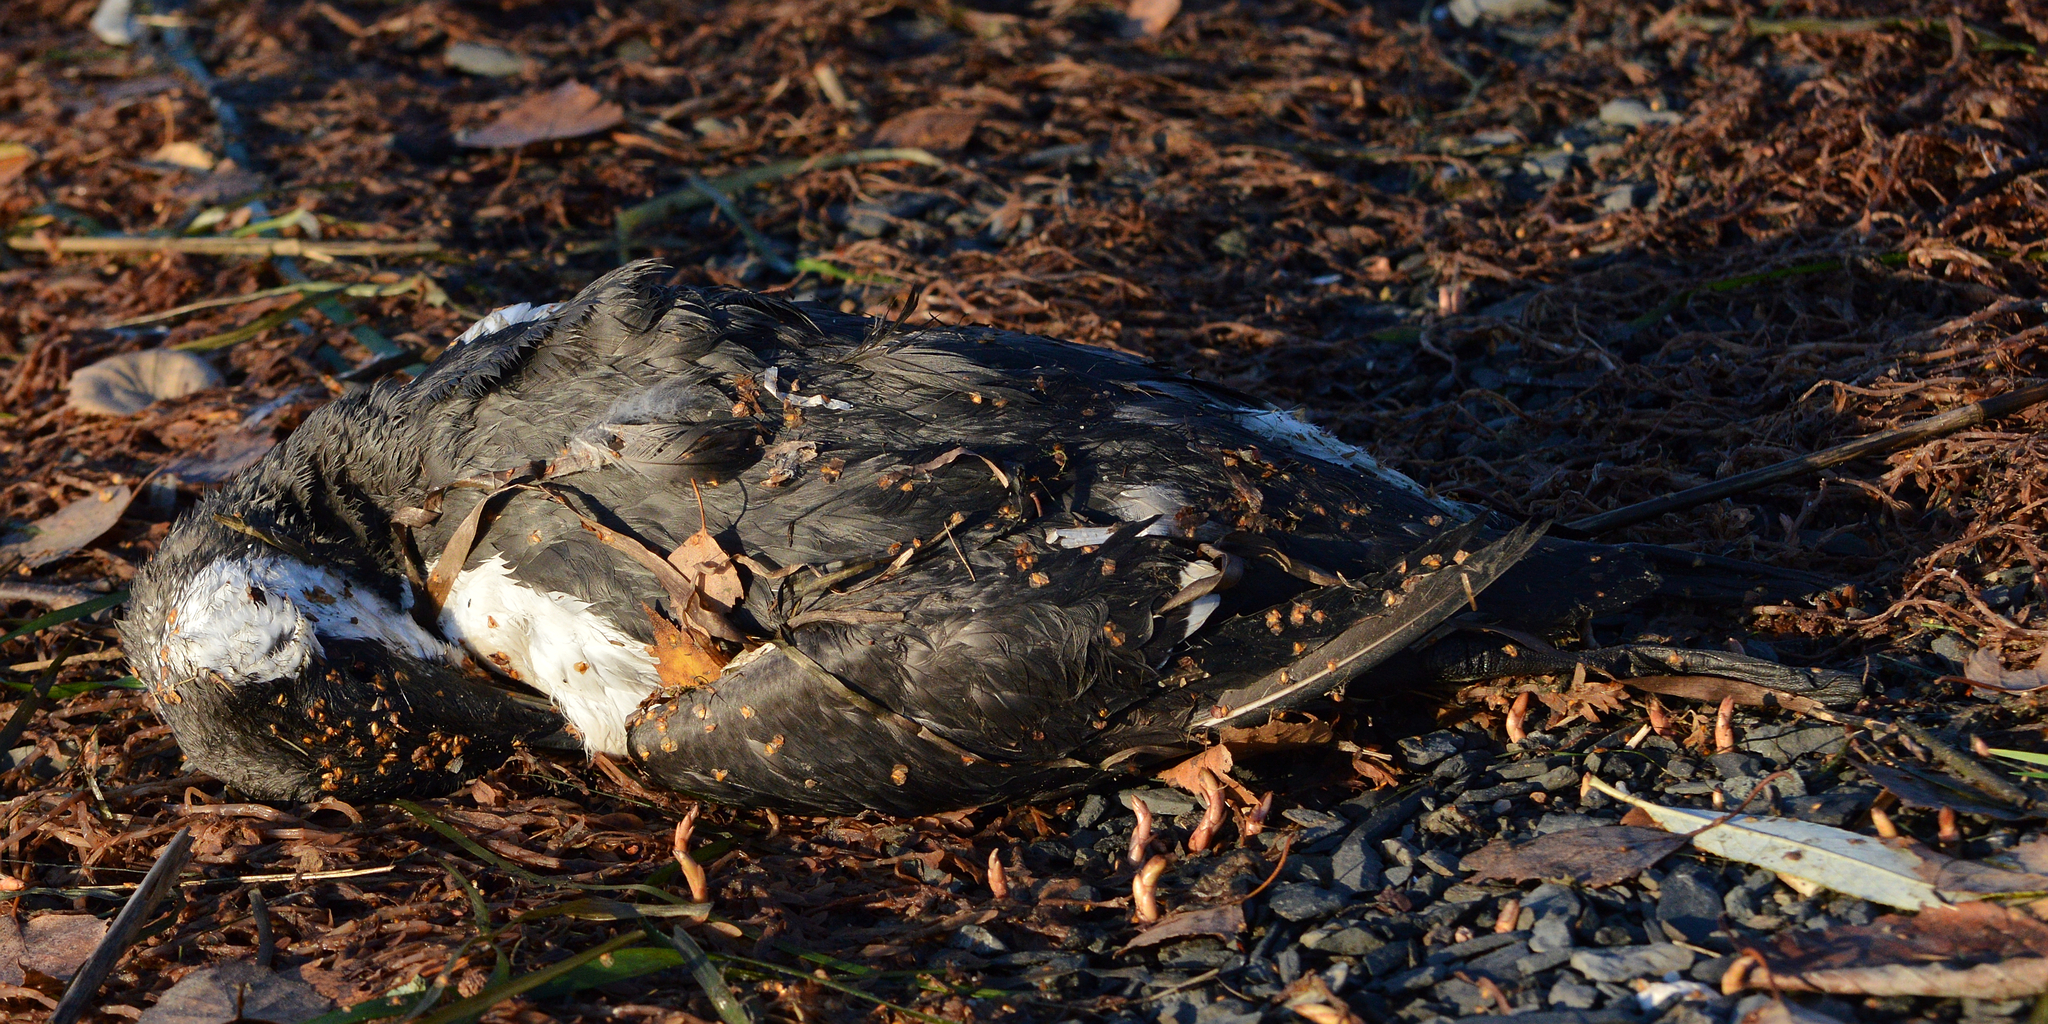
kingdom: Animalia
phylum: Chordata
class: Aves
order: Charadriiformes
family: Alcidae
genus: Uria
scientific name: Uria aalge
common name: Common murre
